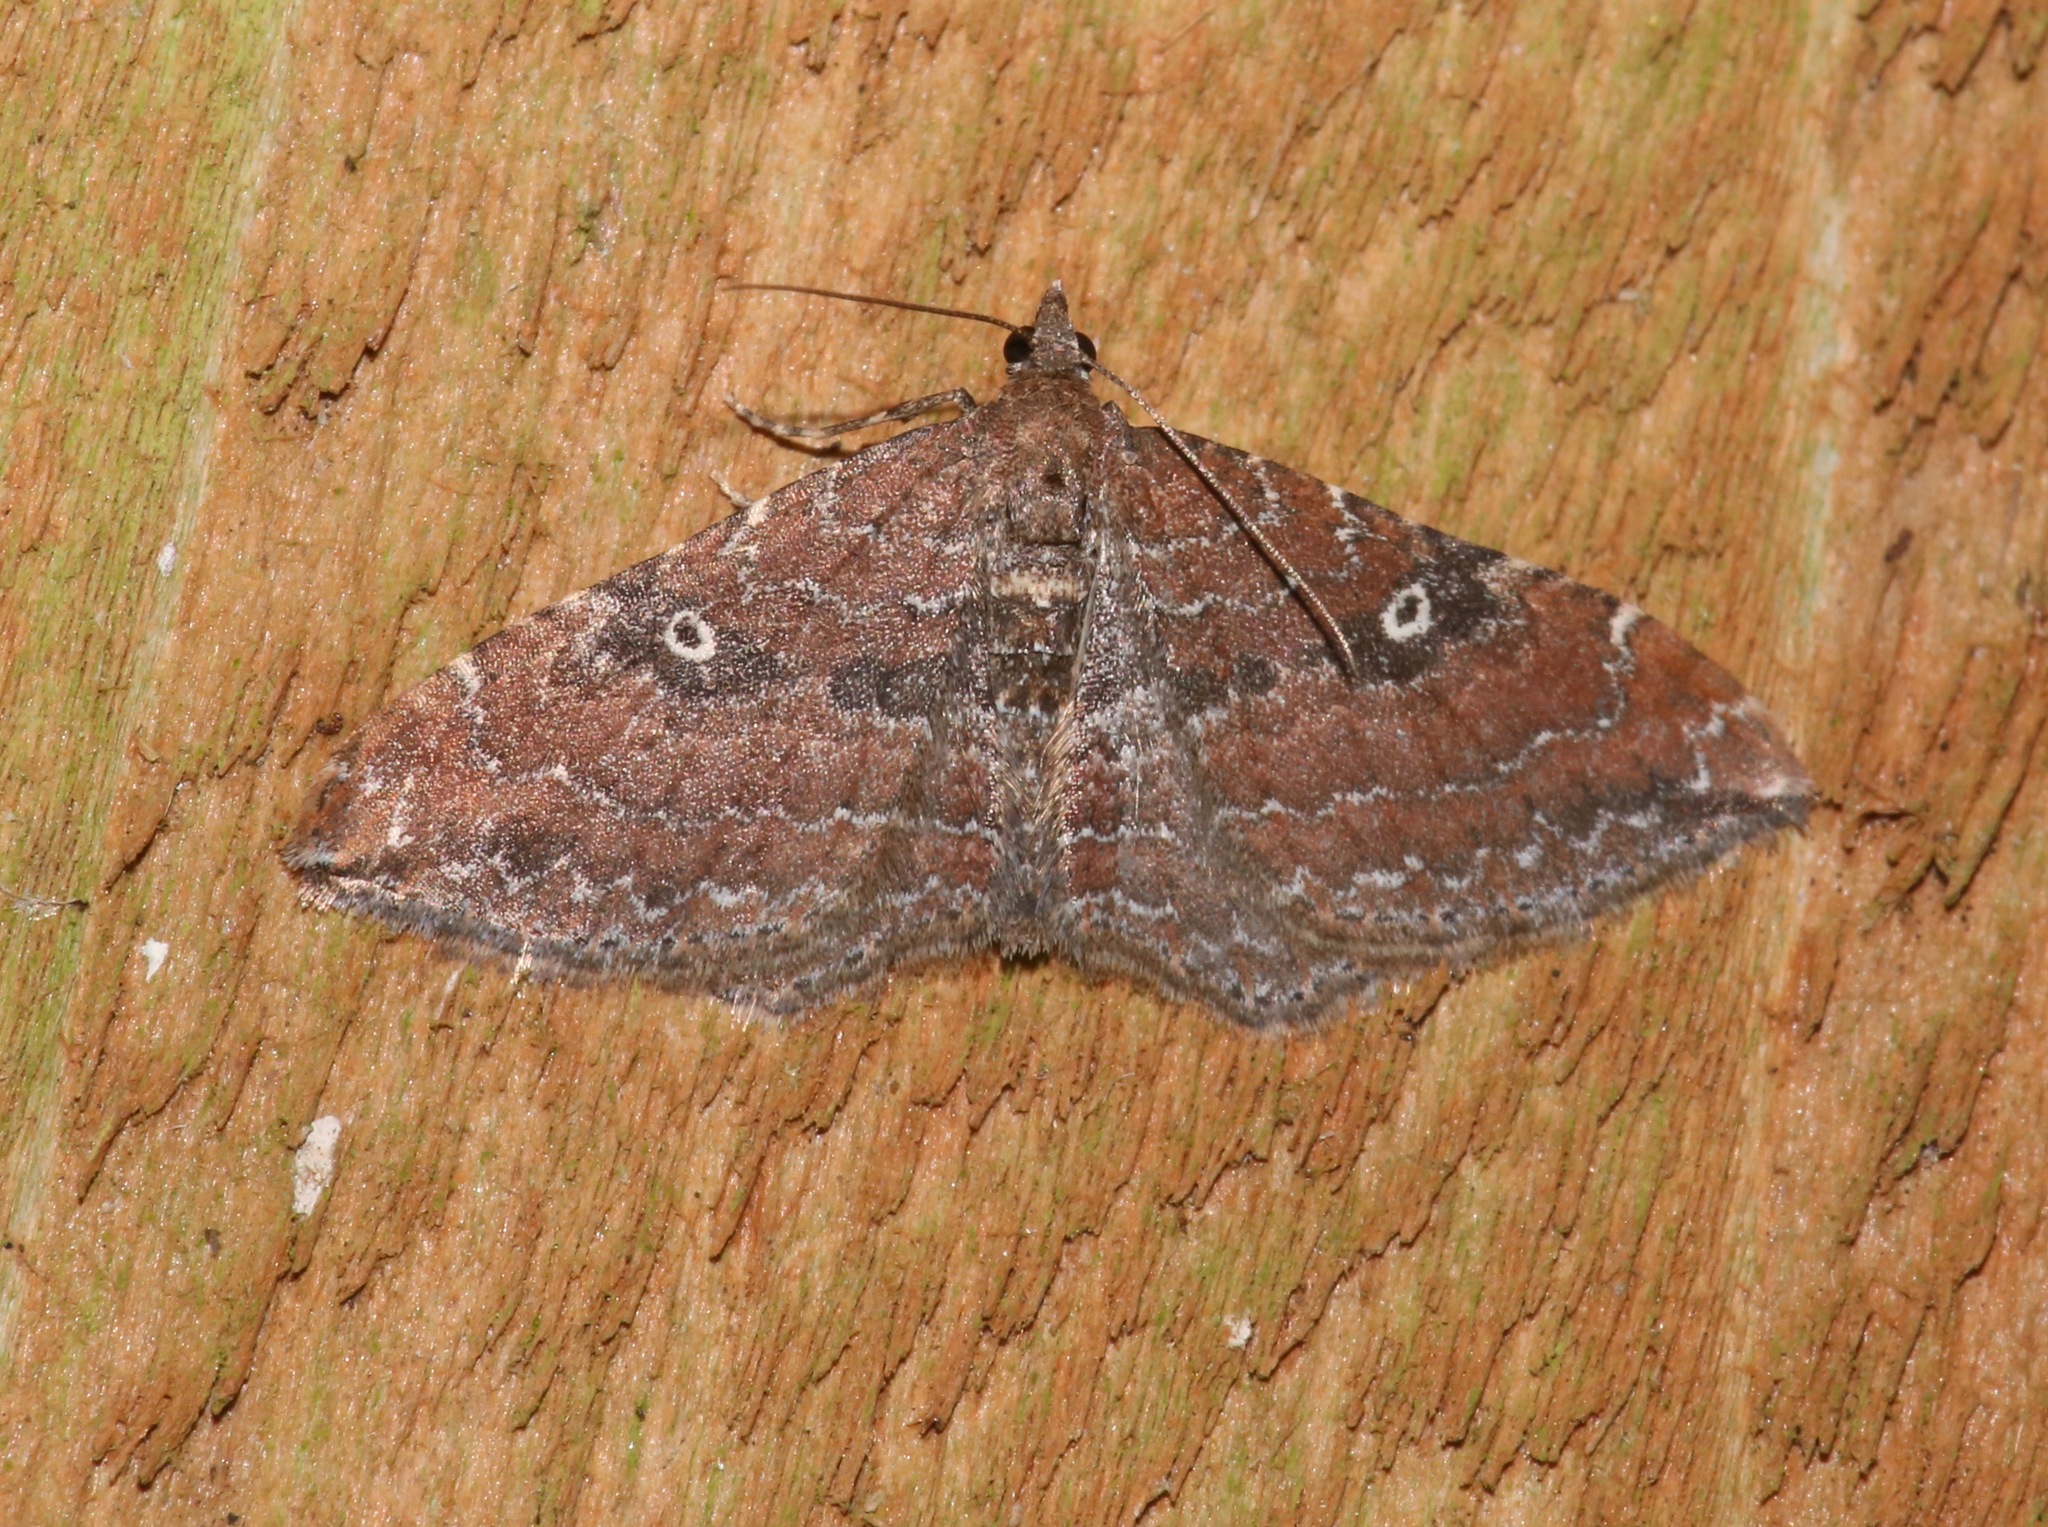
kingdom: Animalia
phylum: Arthropoda
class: Insecta
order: Lepidoptera
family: Geometridae
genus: Orthonama
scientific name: Orthonama obstipata
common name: The gem
